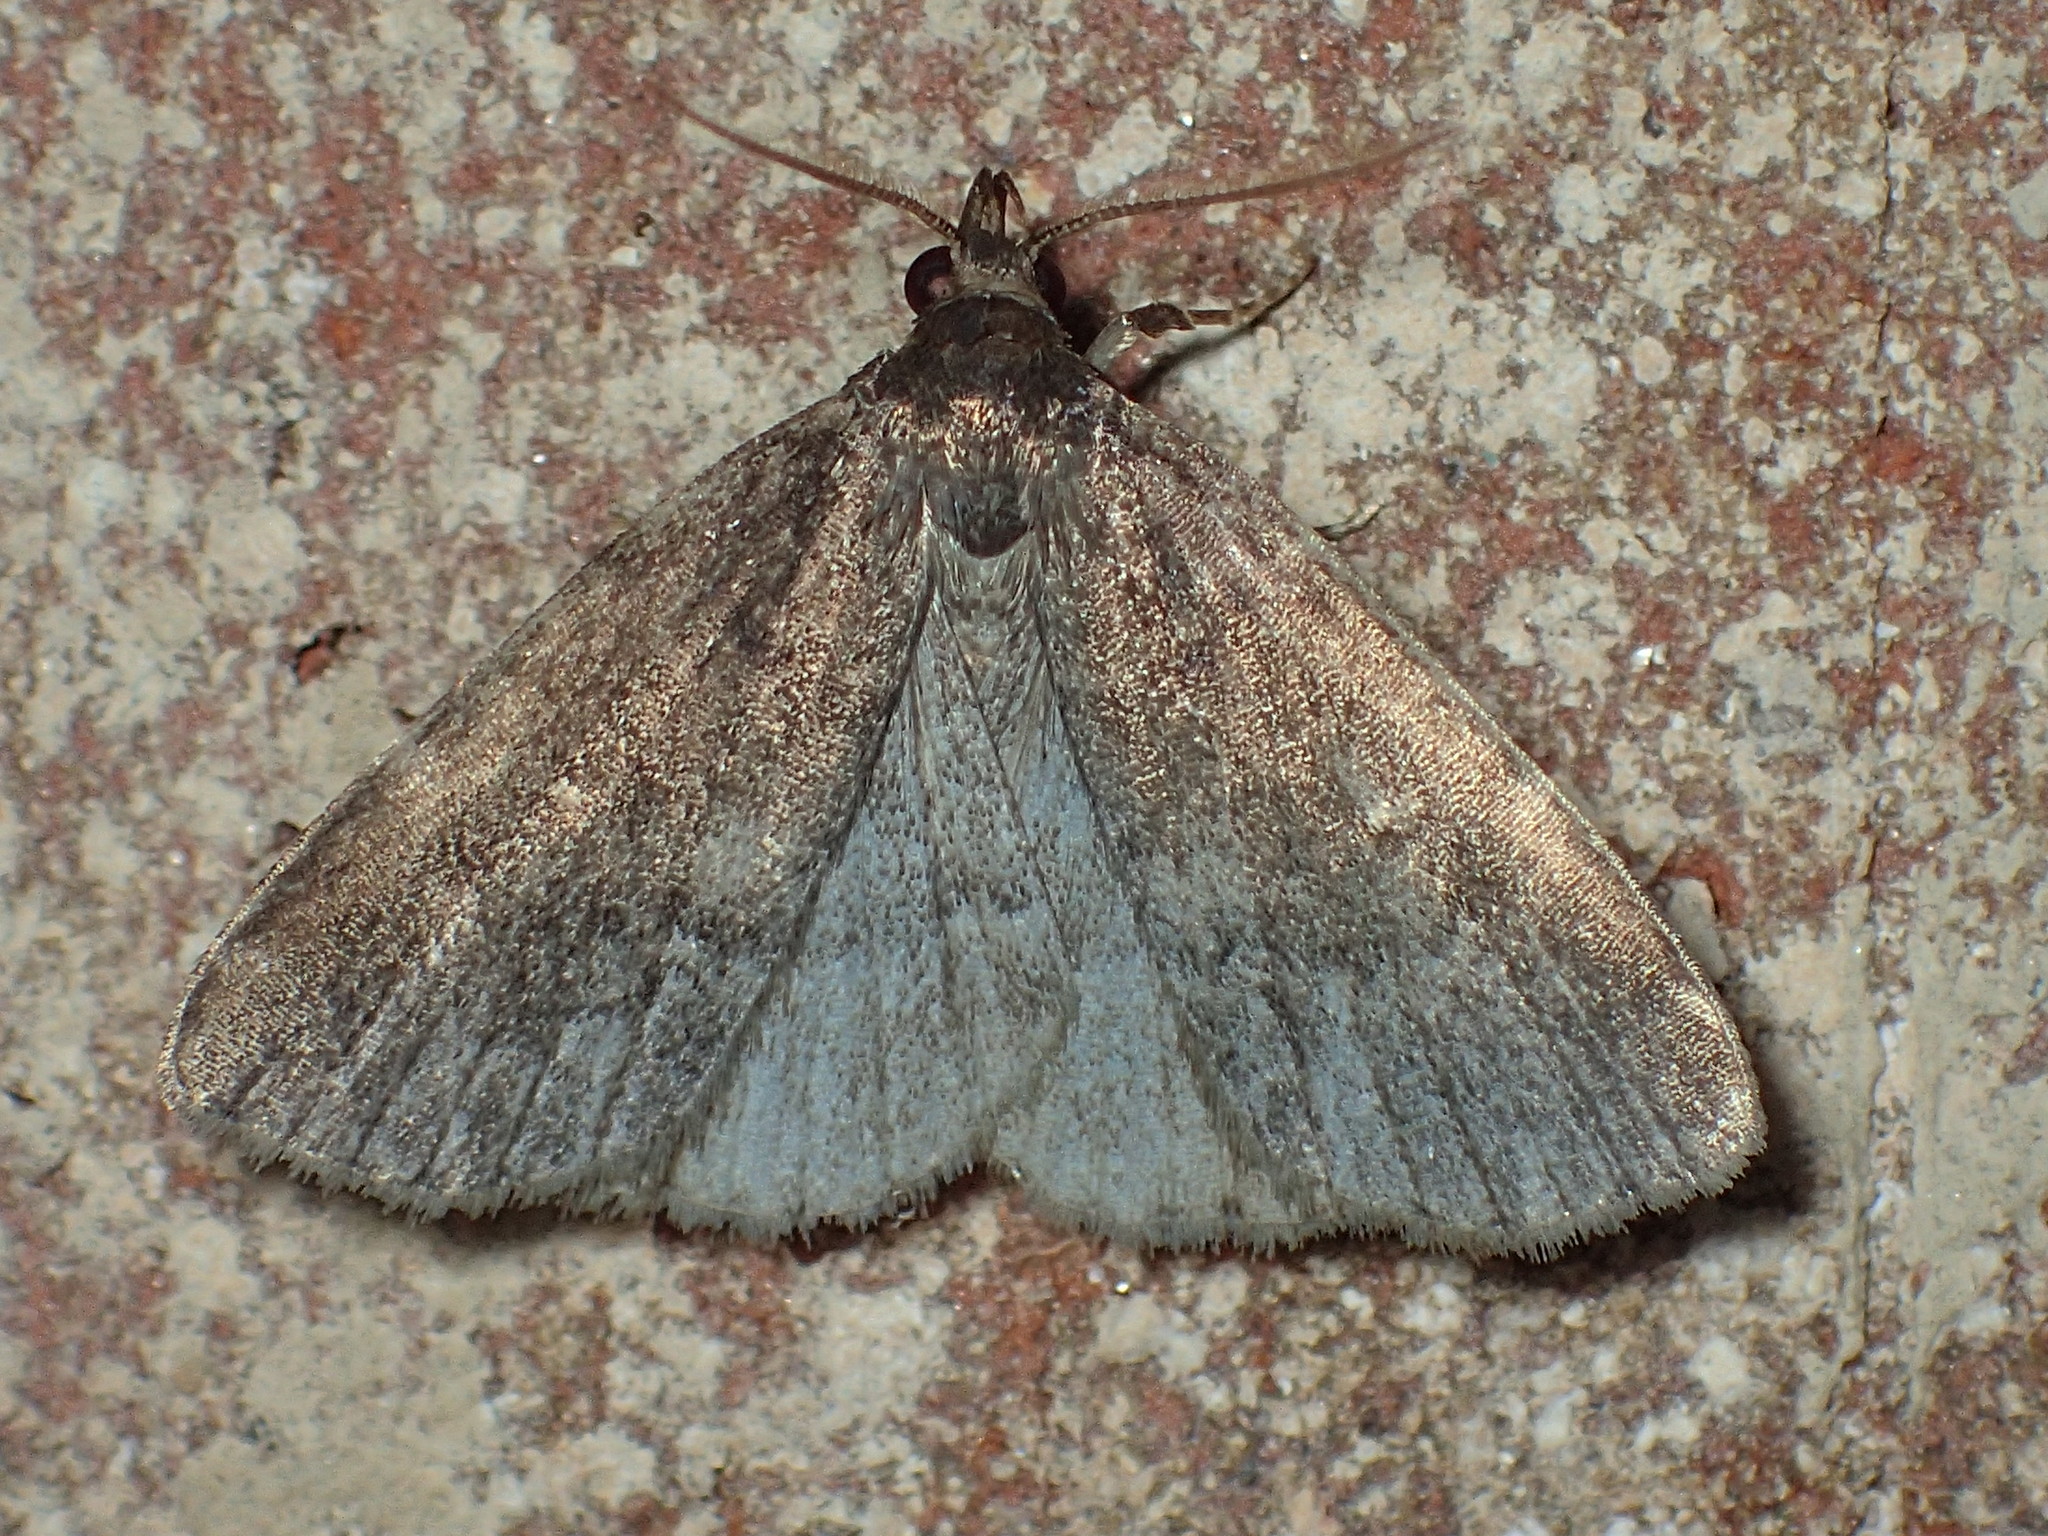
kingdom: Animalia
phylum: Arthropoda
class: Insecta
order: Lepidoptera
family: Erebidae
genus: Idia
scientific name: Idia rotundalis
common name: Rotund idia moth
